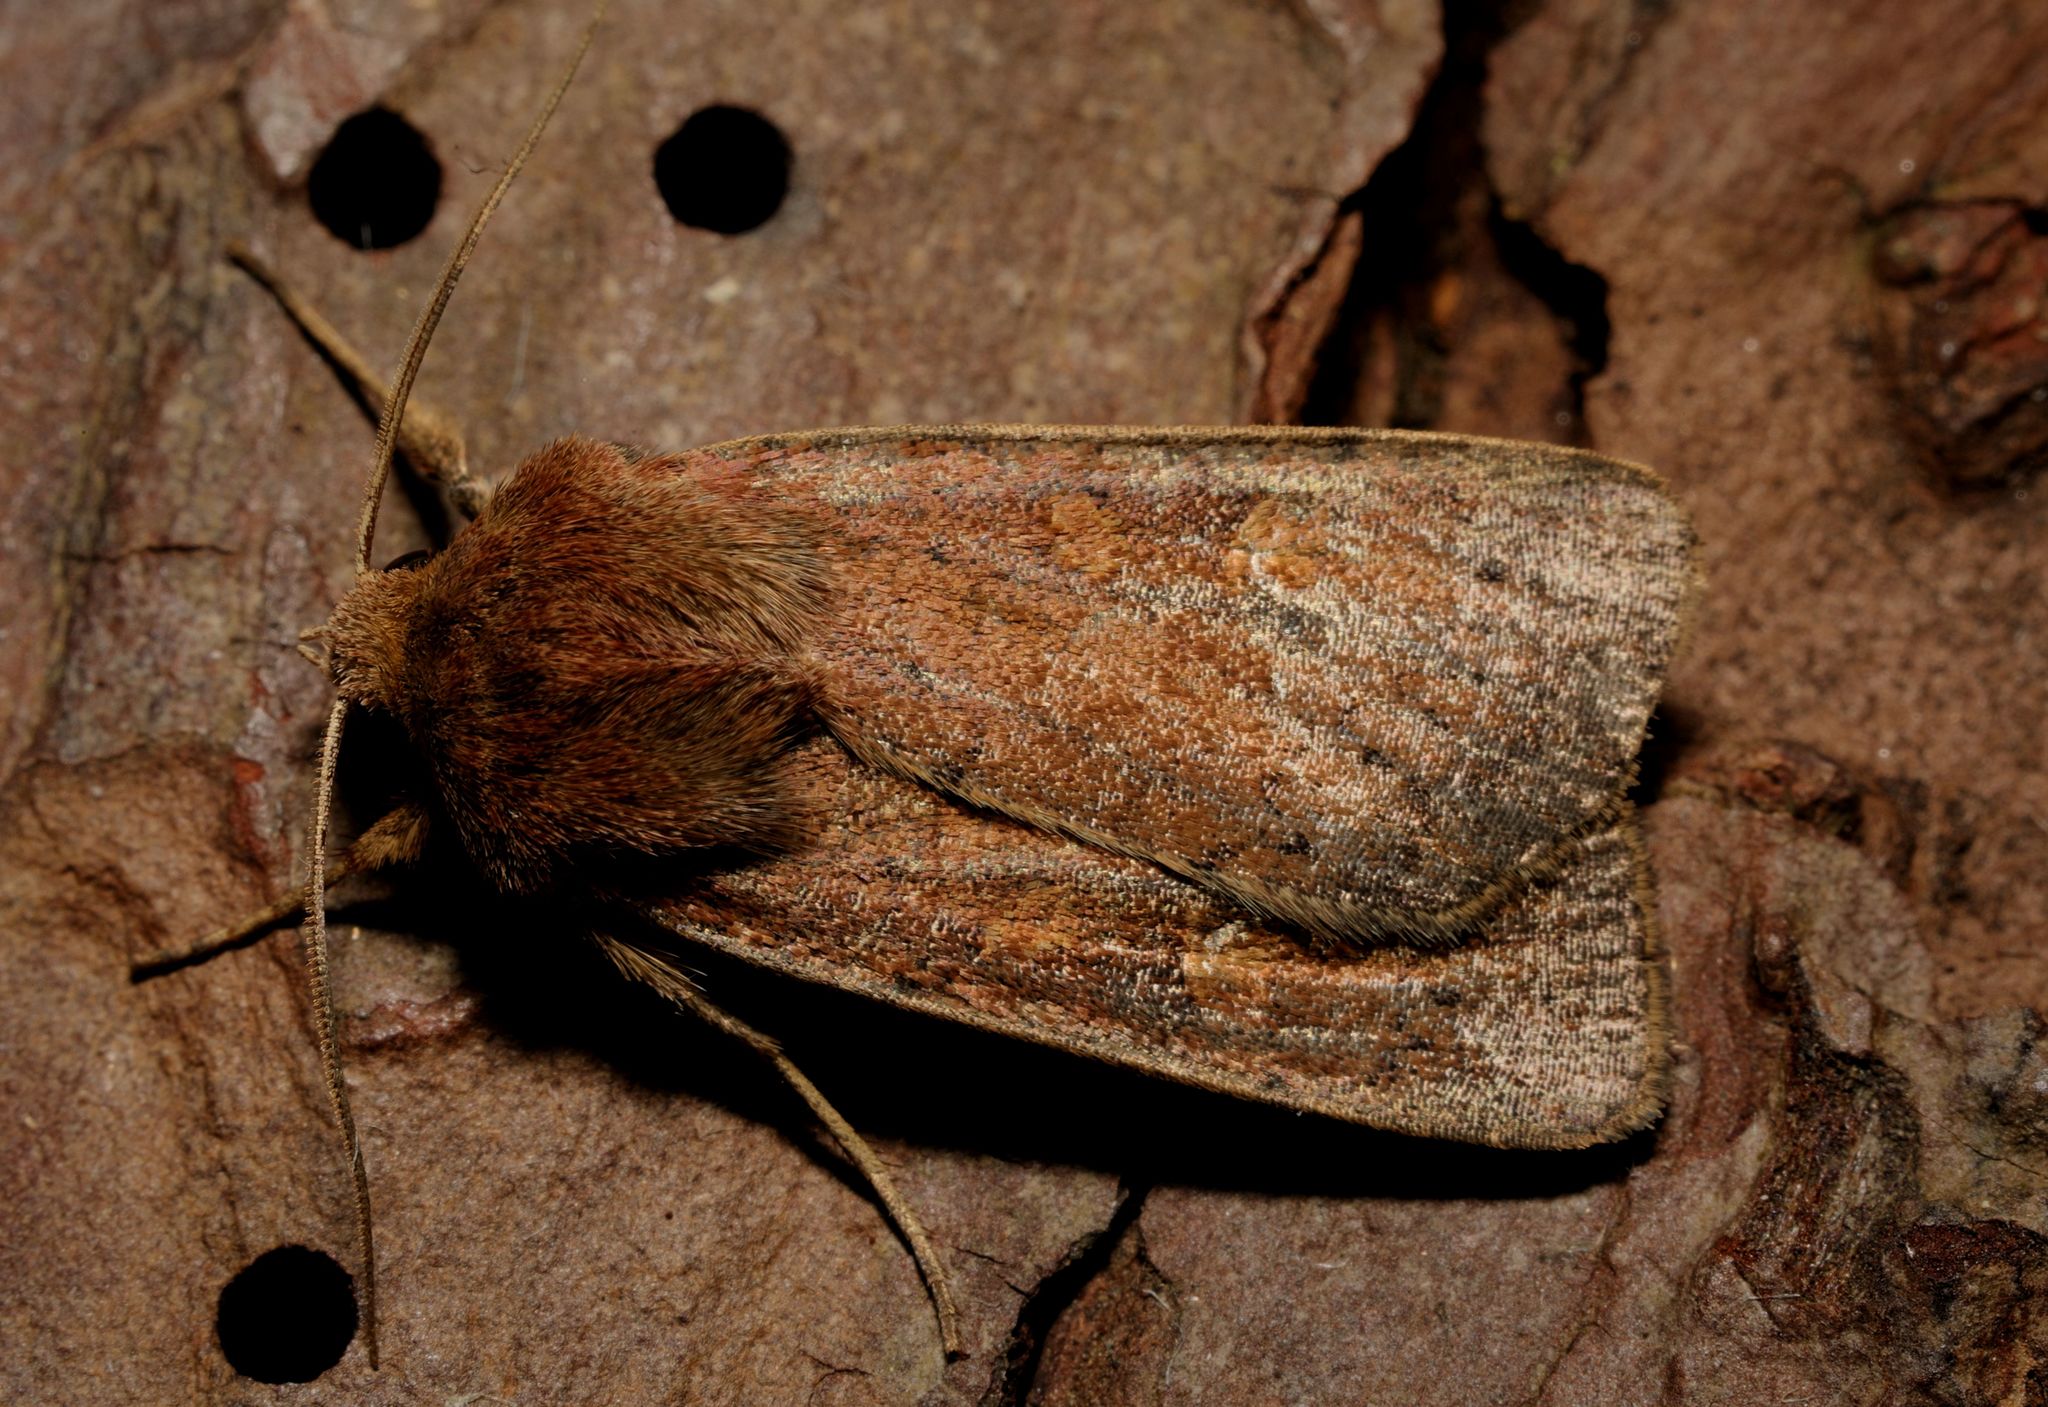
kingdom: Animalia
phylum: Arthropoda
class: Insecta
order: Lepidoptera
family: Noctuidae
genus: Xestia
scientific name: Xestia xanthographa
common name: Square-spot rustic
